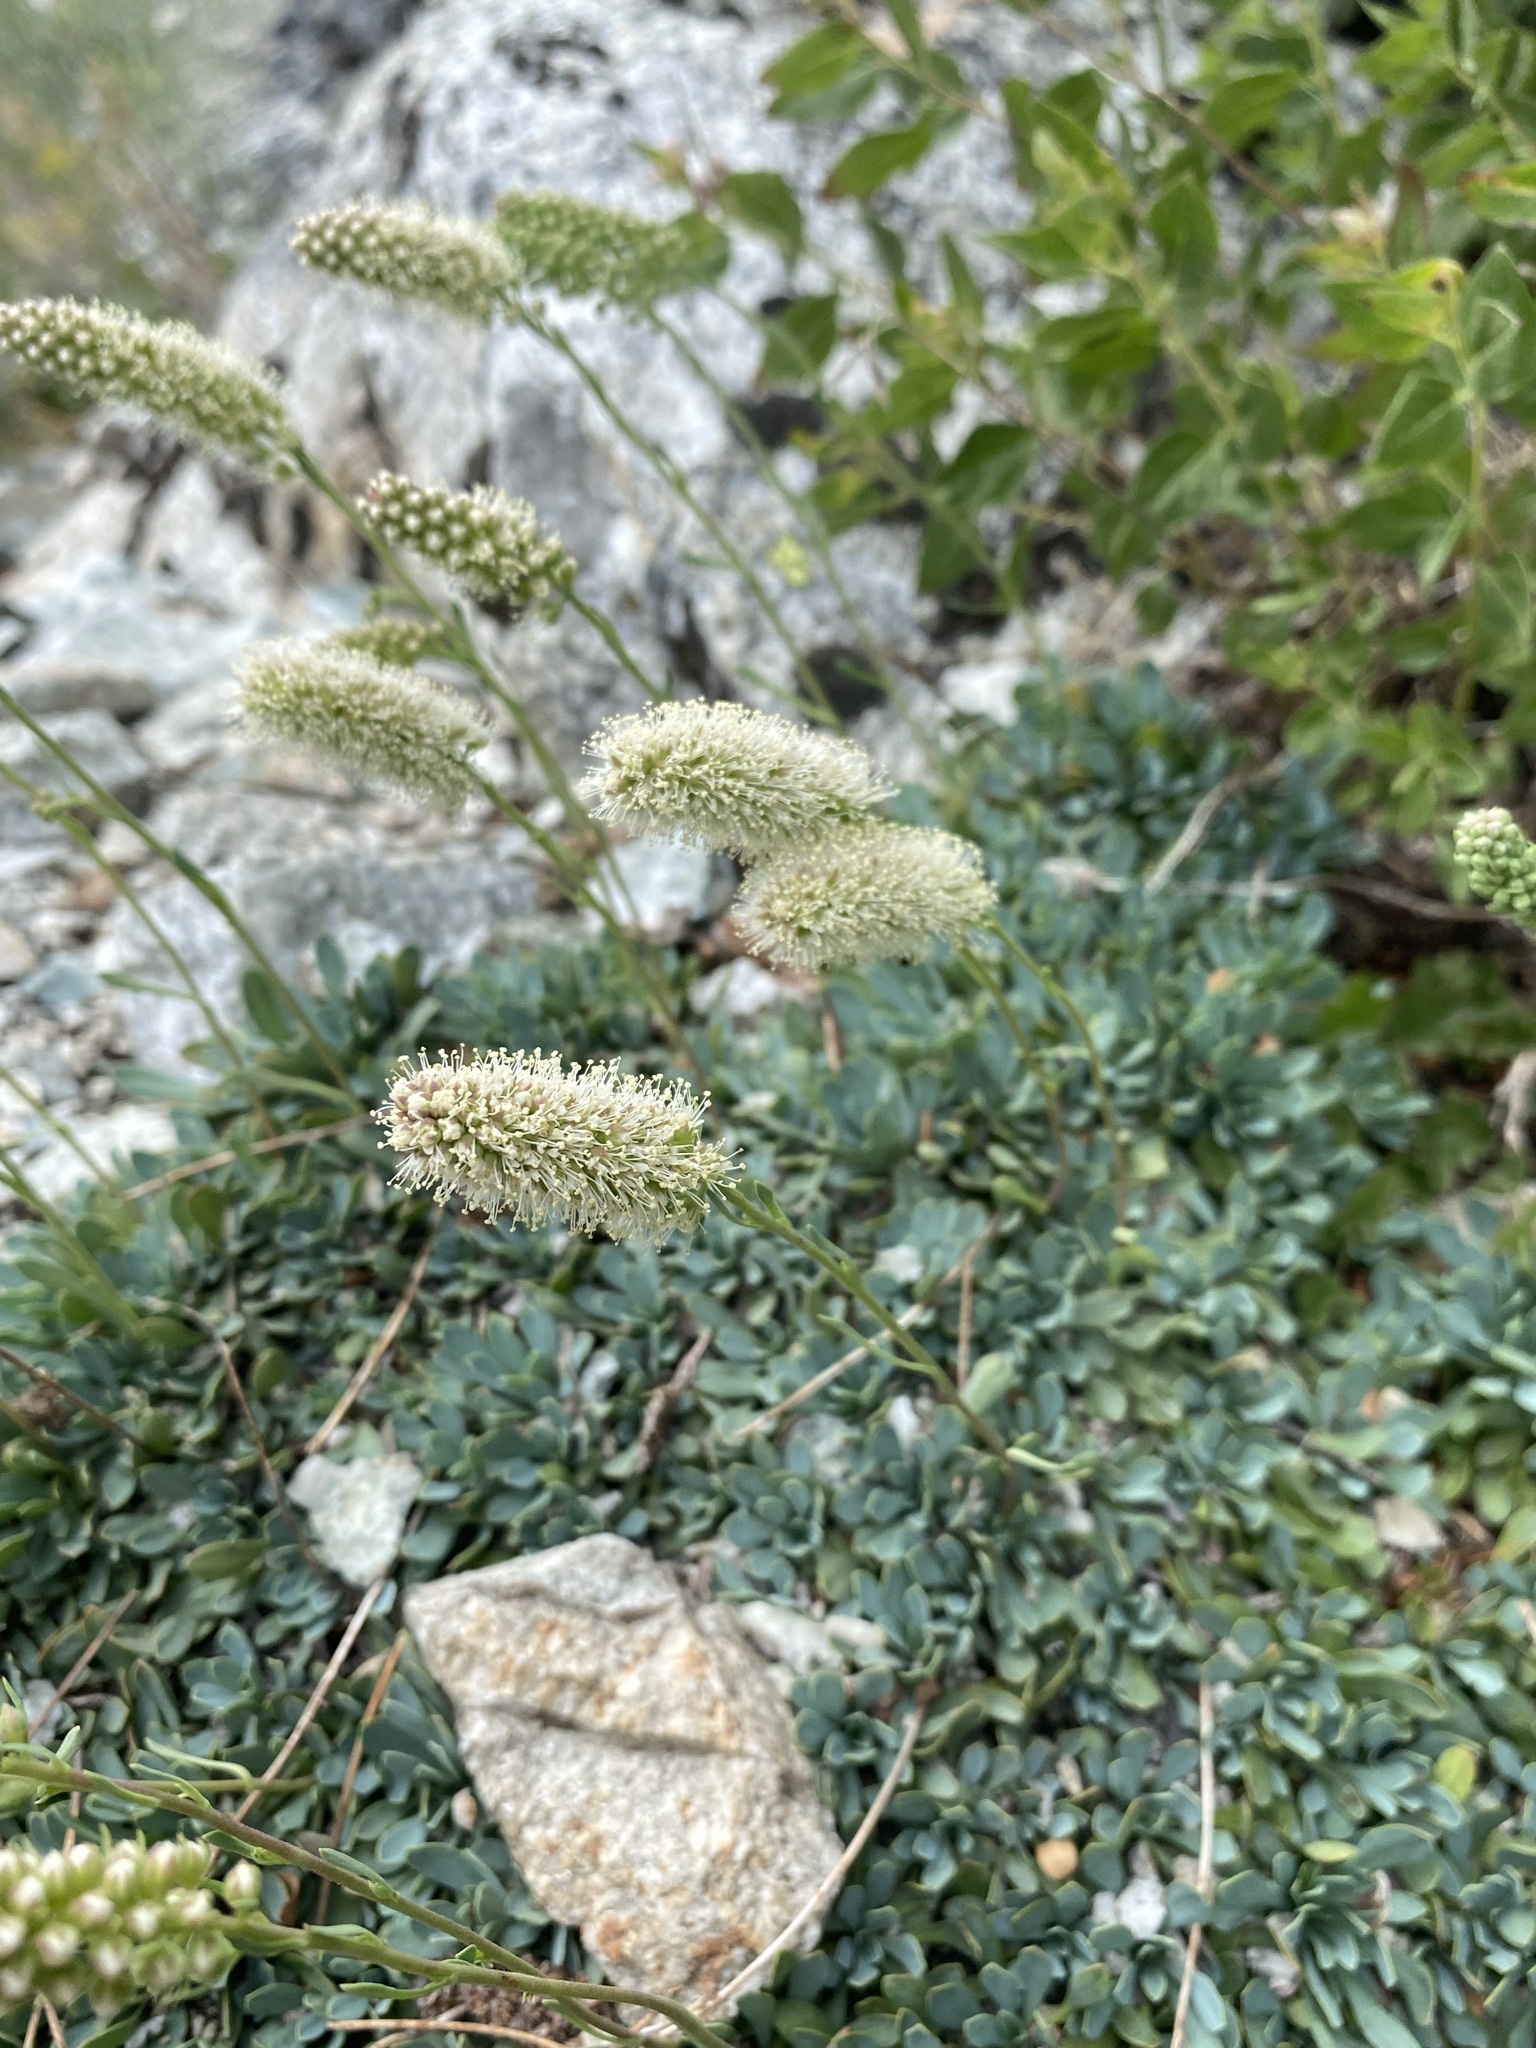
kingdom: Plantae
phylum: Tracheophyta
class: Magnoliopsida
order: Rosales
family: Rosaceae
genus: Petrophytum
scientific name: Petrophytum caespitosum
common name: Mat rockspirea
